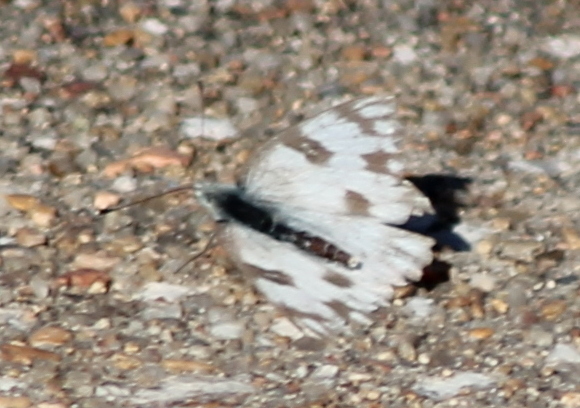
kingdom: Animalia
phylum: Arthropoda
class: Insecta
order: Lepidoptera
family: Pieridae
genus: Pontia
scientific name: Pontia protodice
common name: Checkered white
